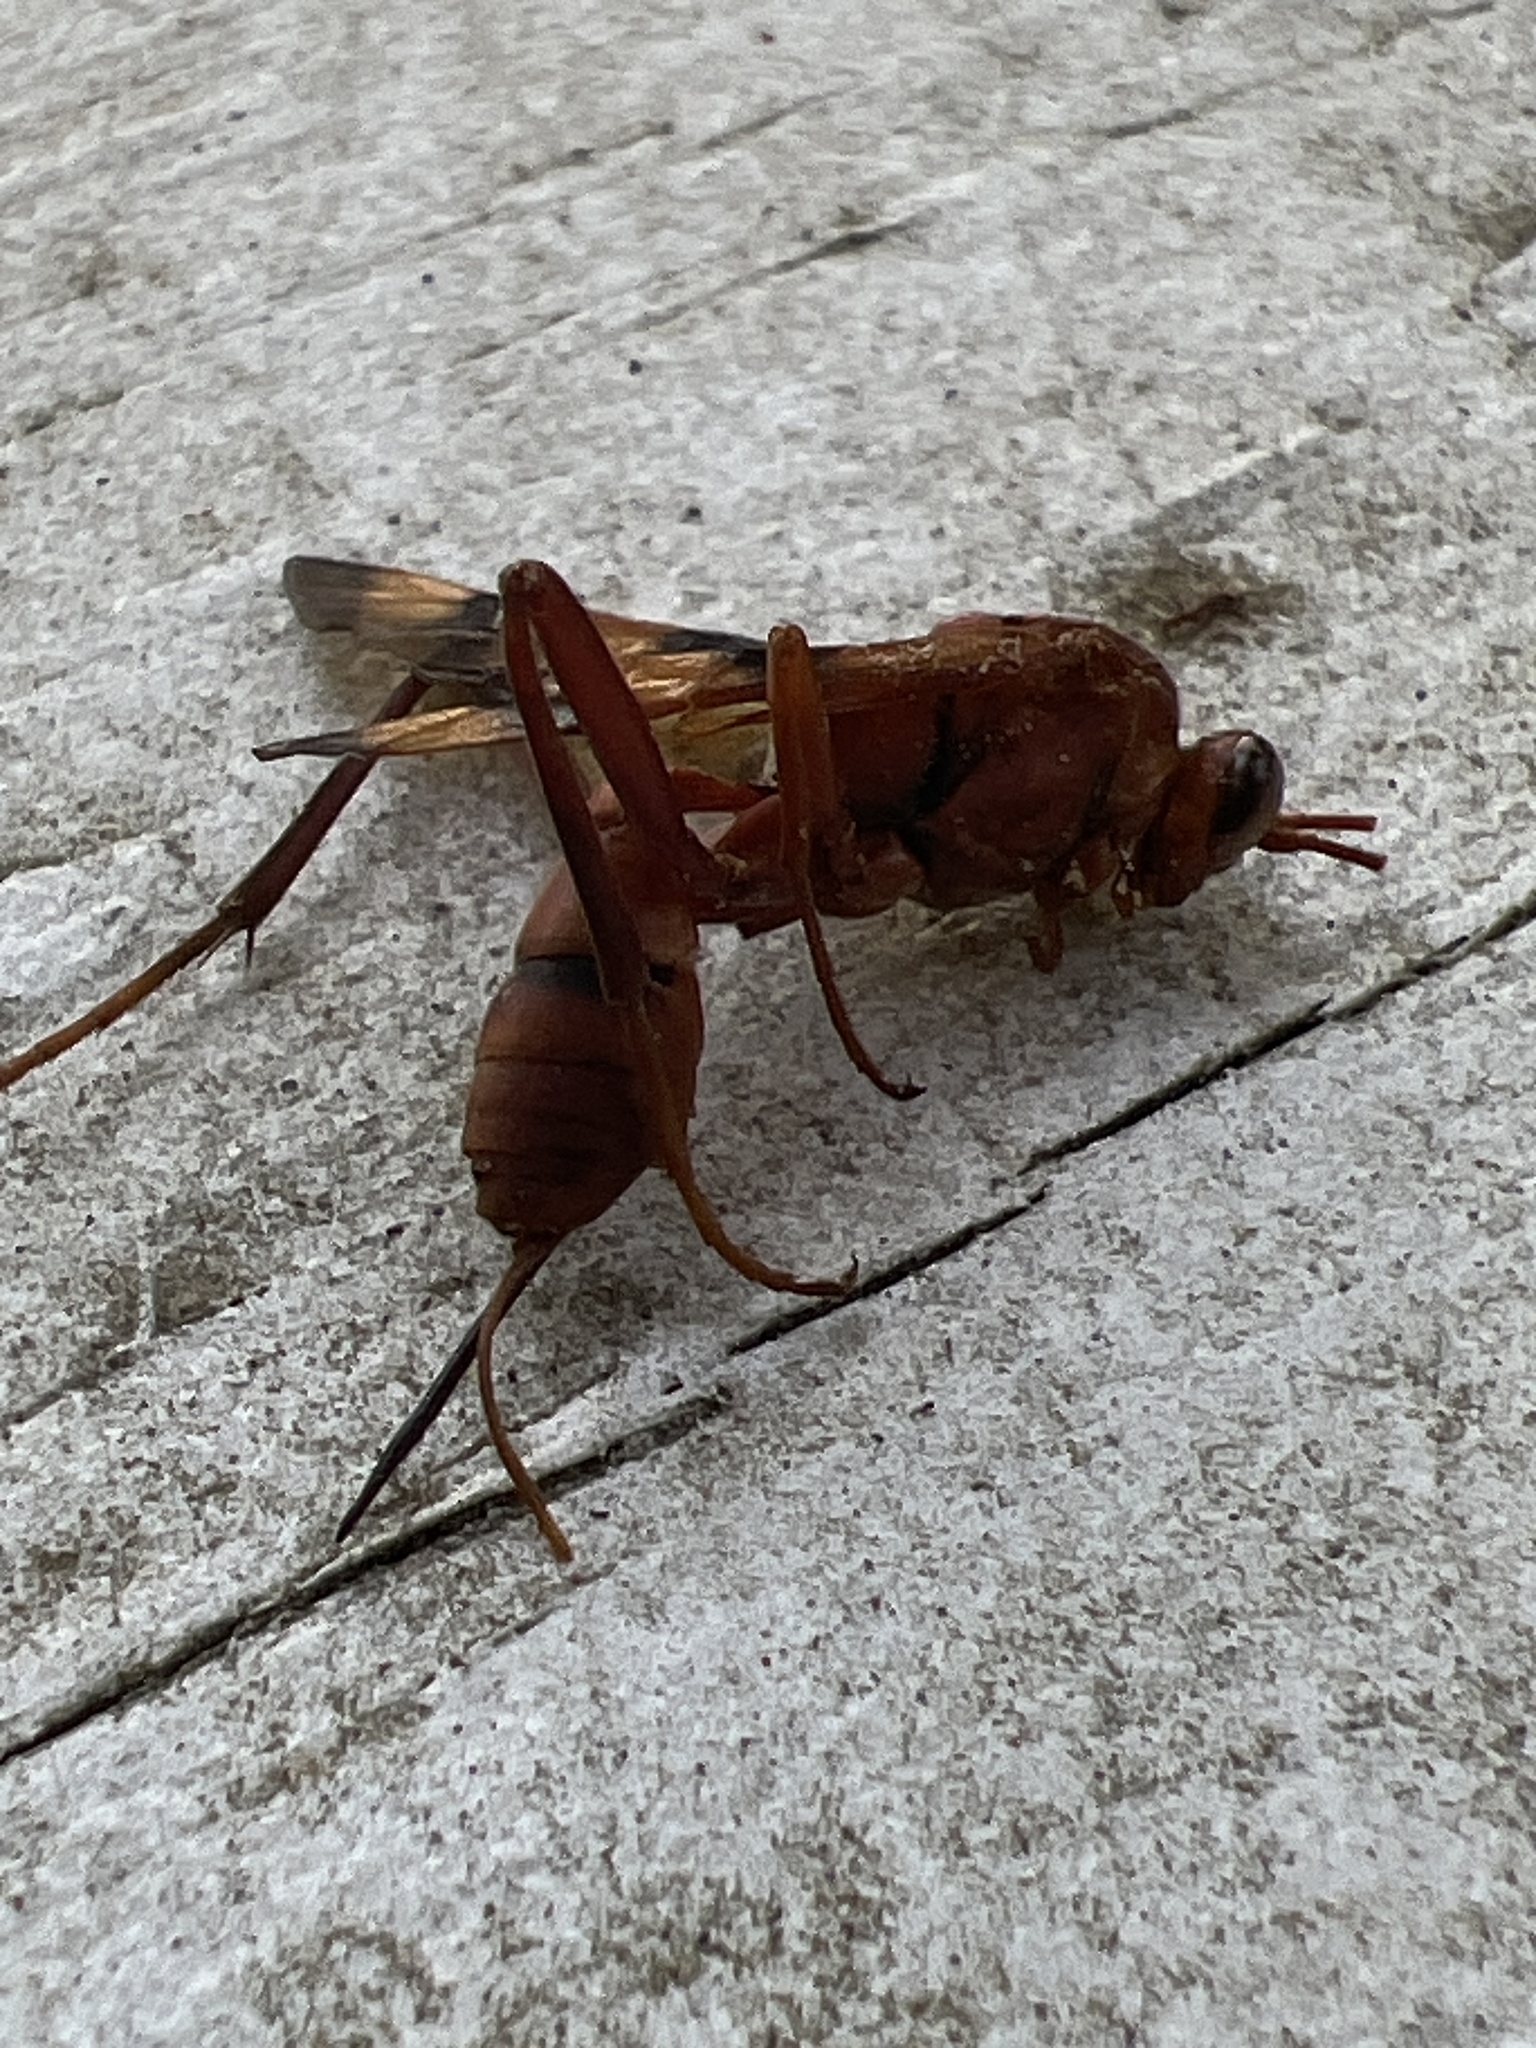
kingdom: Animalia
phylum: Arthropoda
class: Insecta
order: Hymenoptera
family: Ichneumonidae
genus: Lanugo
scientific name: Lanugo cesta
